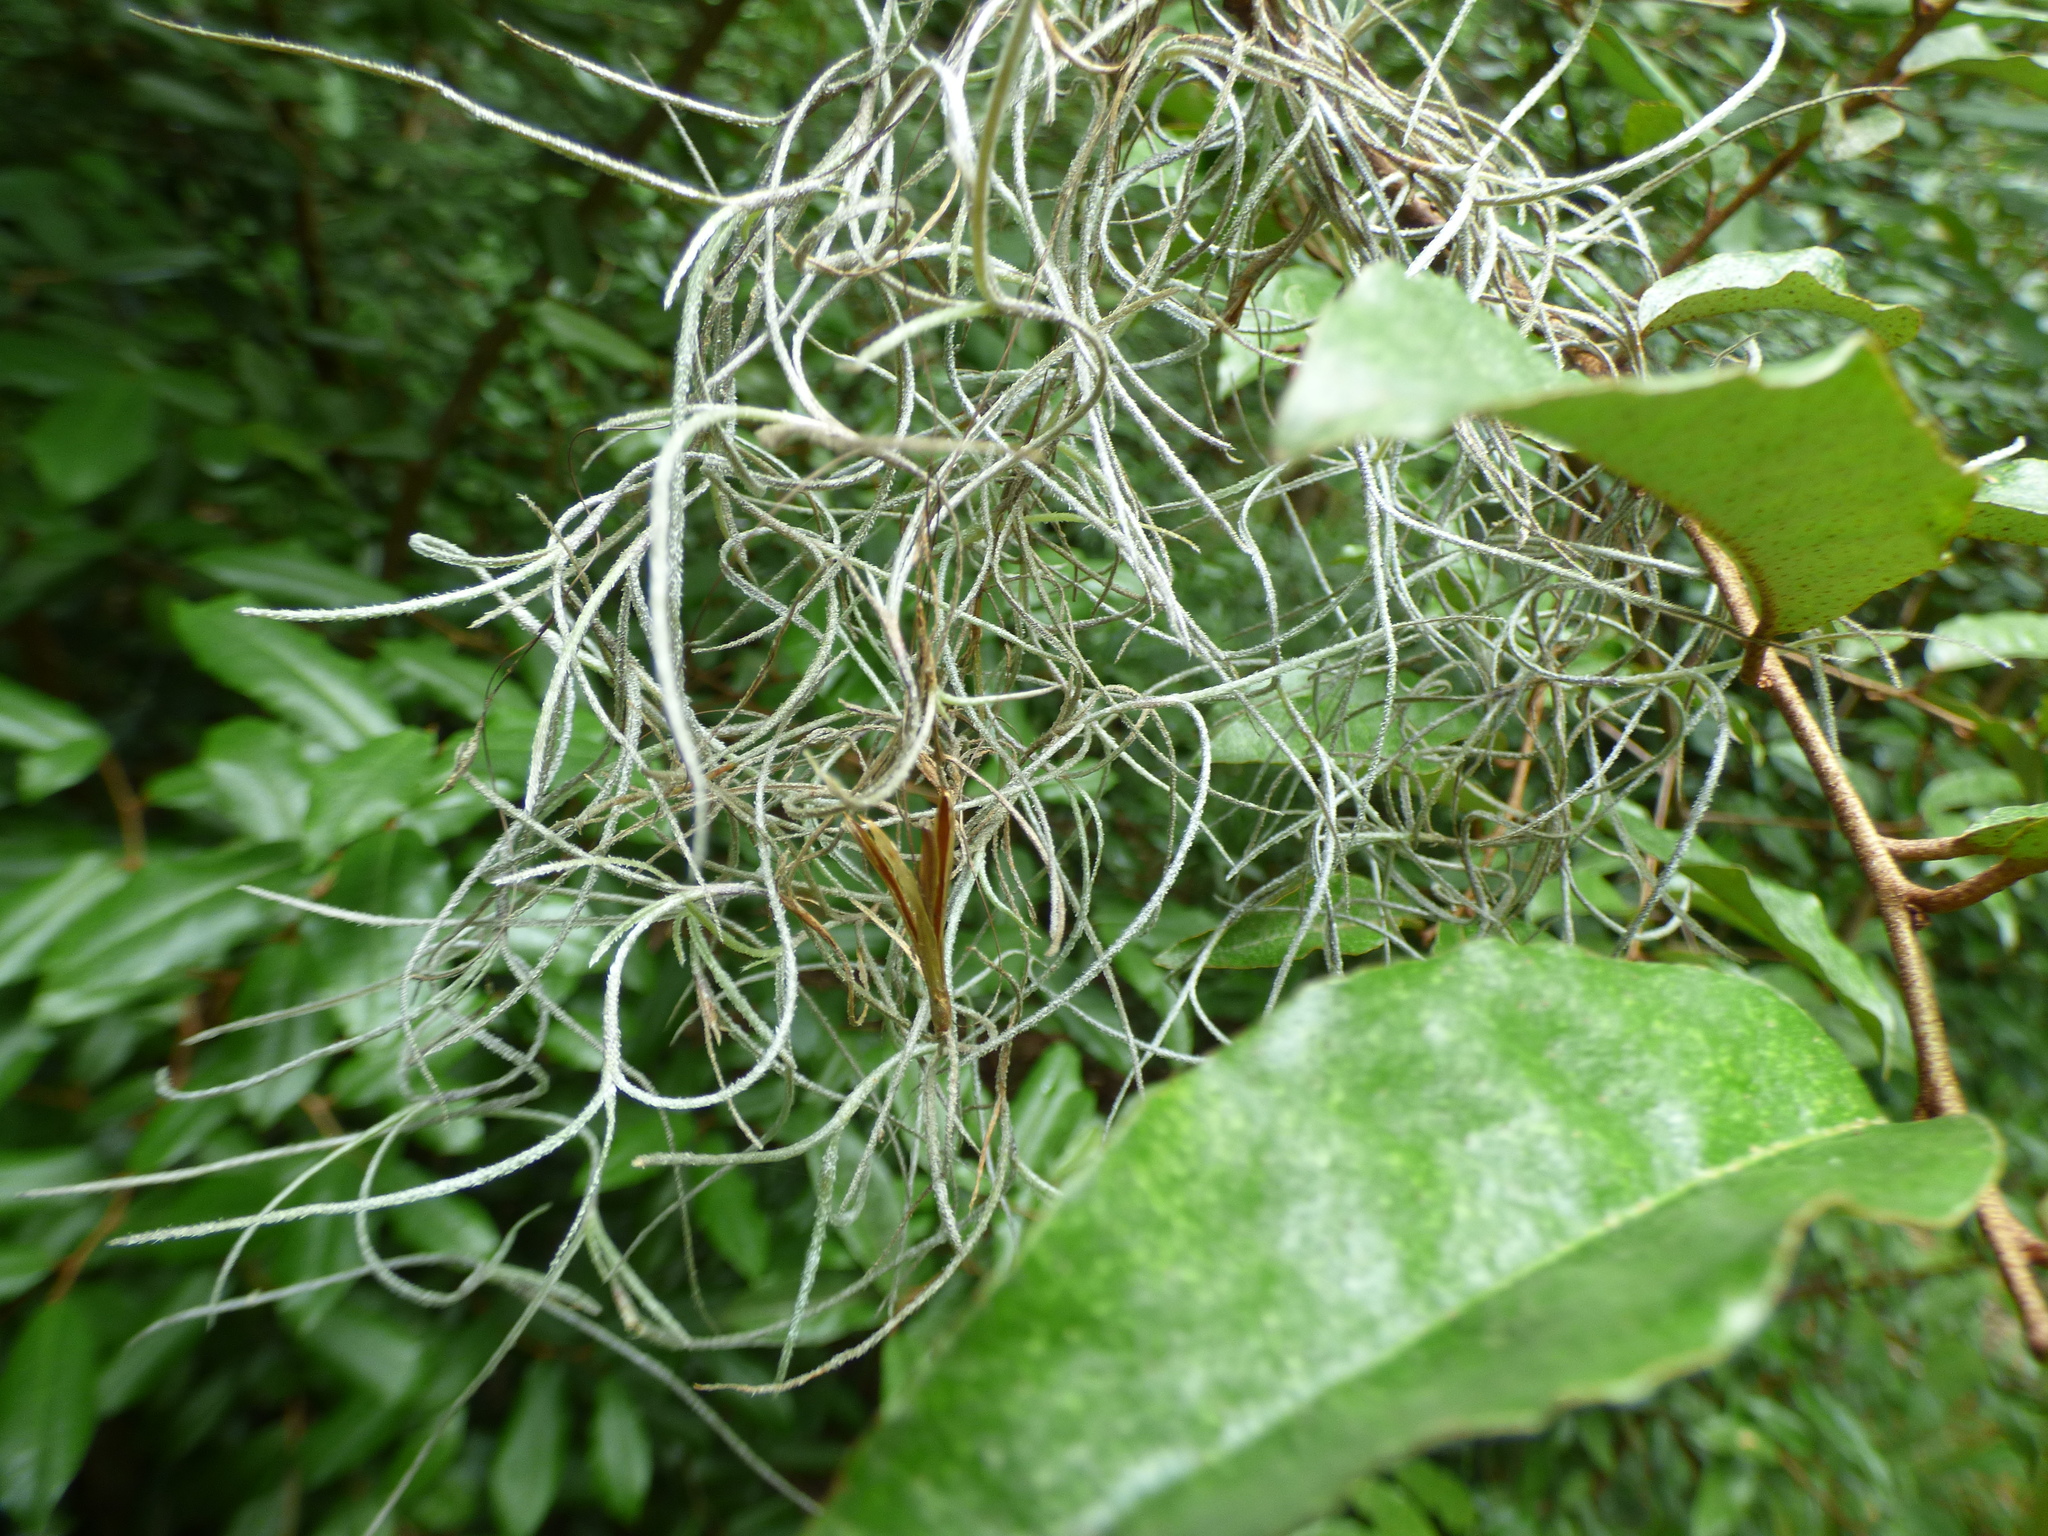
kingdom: Plantae
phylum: Tracheophyta
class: Liliopsida
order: Poales
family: Bromeliaceae
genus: Tillandsia
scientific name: Tillandsia usneoides
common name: Spanish moss
